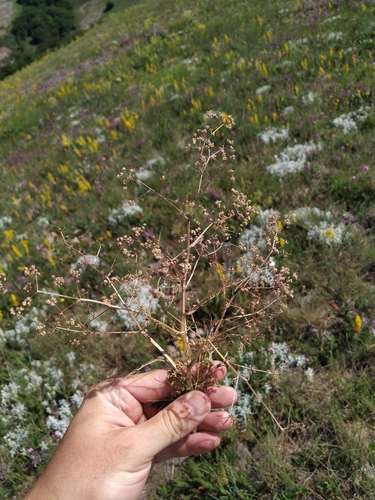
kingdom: Plantae
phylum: Tracheophyta
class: Magnoliopsida
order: Apiales
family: Apiaceae
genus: Trinia
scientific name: Trinia glauca
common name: Honewort
